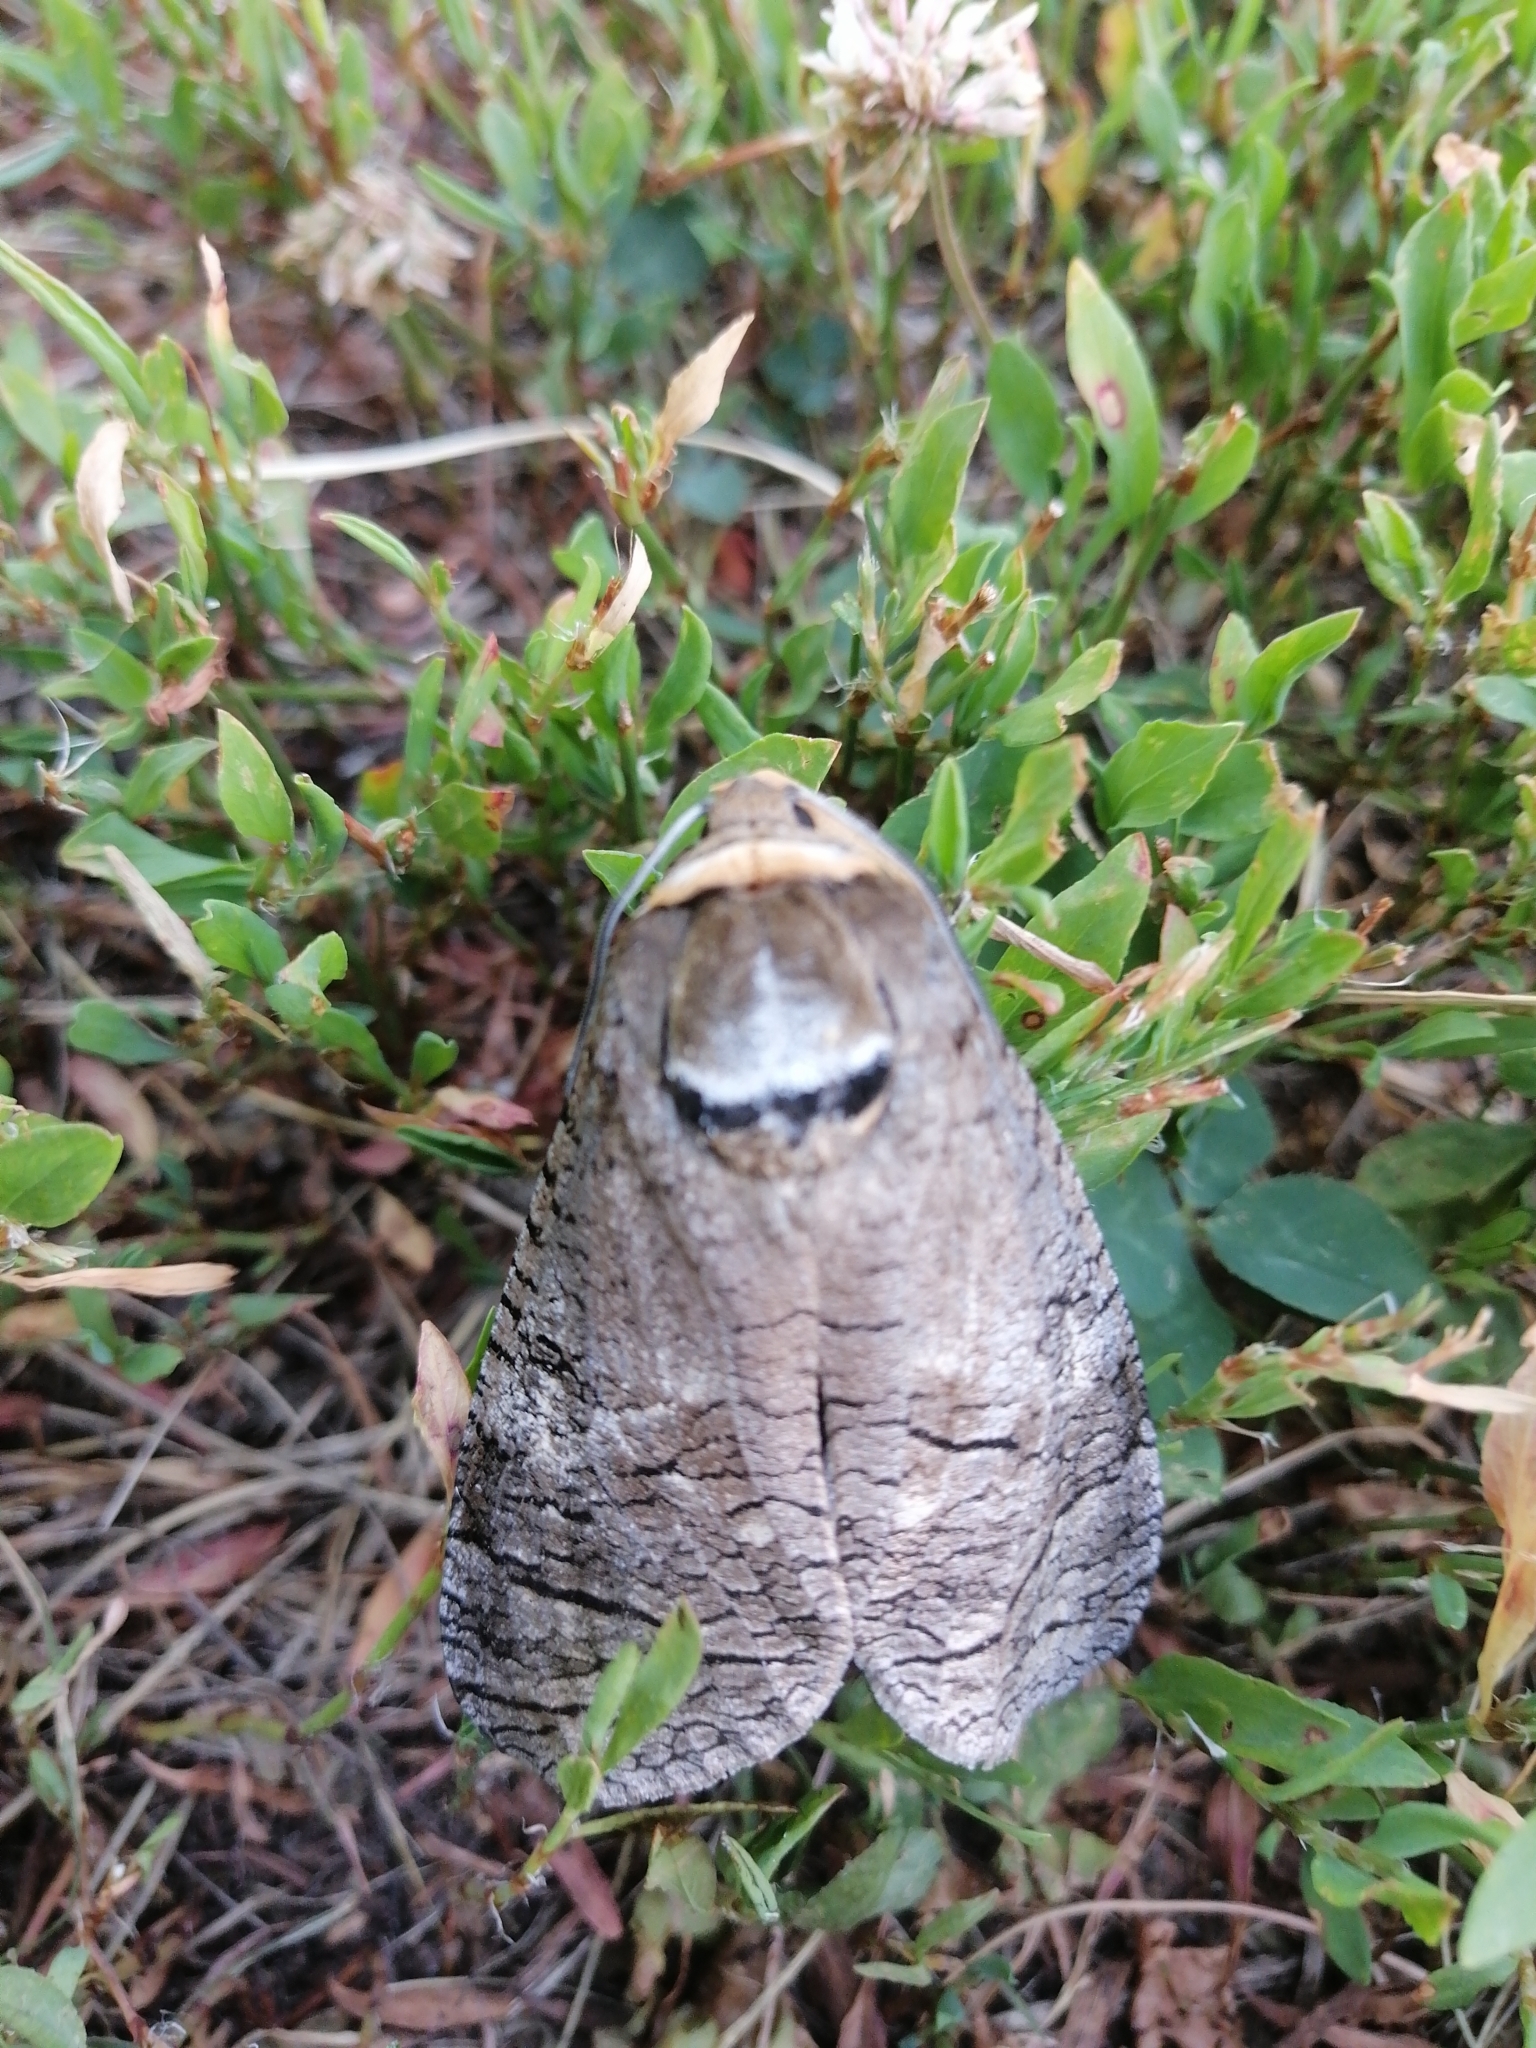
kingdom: Animalia
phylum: Arthropoda
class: Insecta
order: Lepidoptera
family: Cossidae
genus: Cossus
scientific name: Cossus cossus
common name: Goat moth
